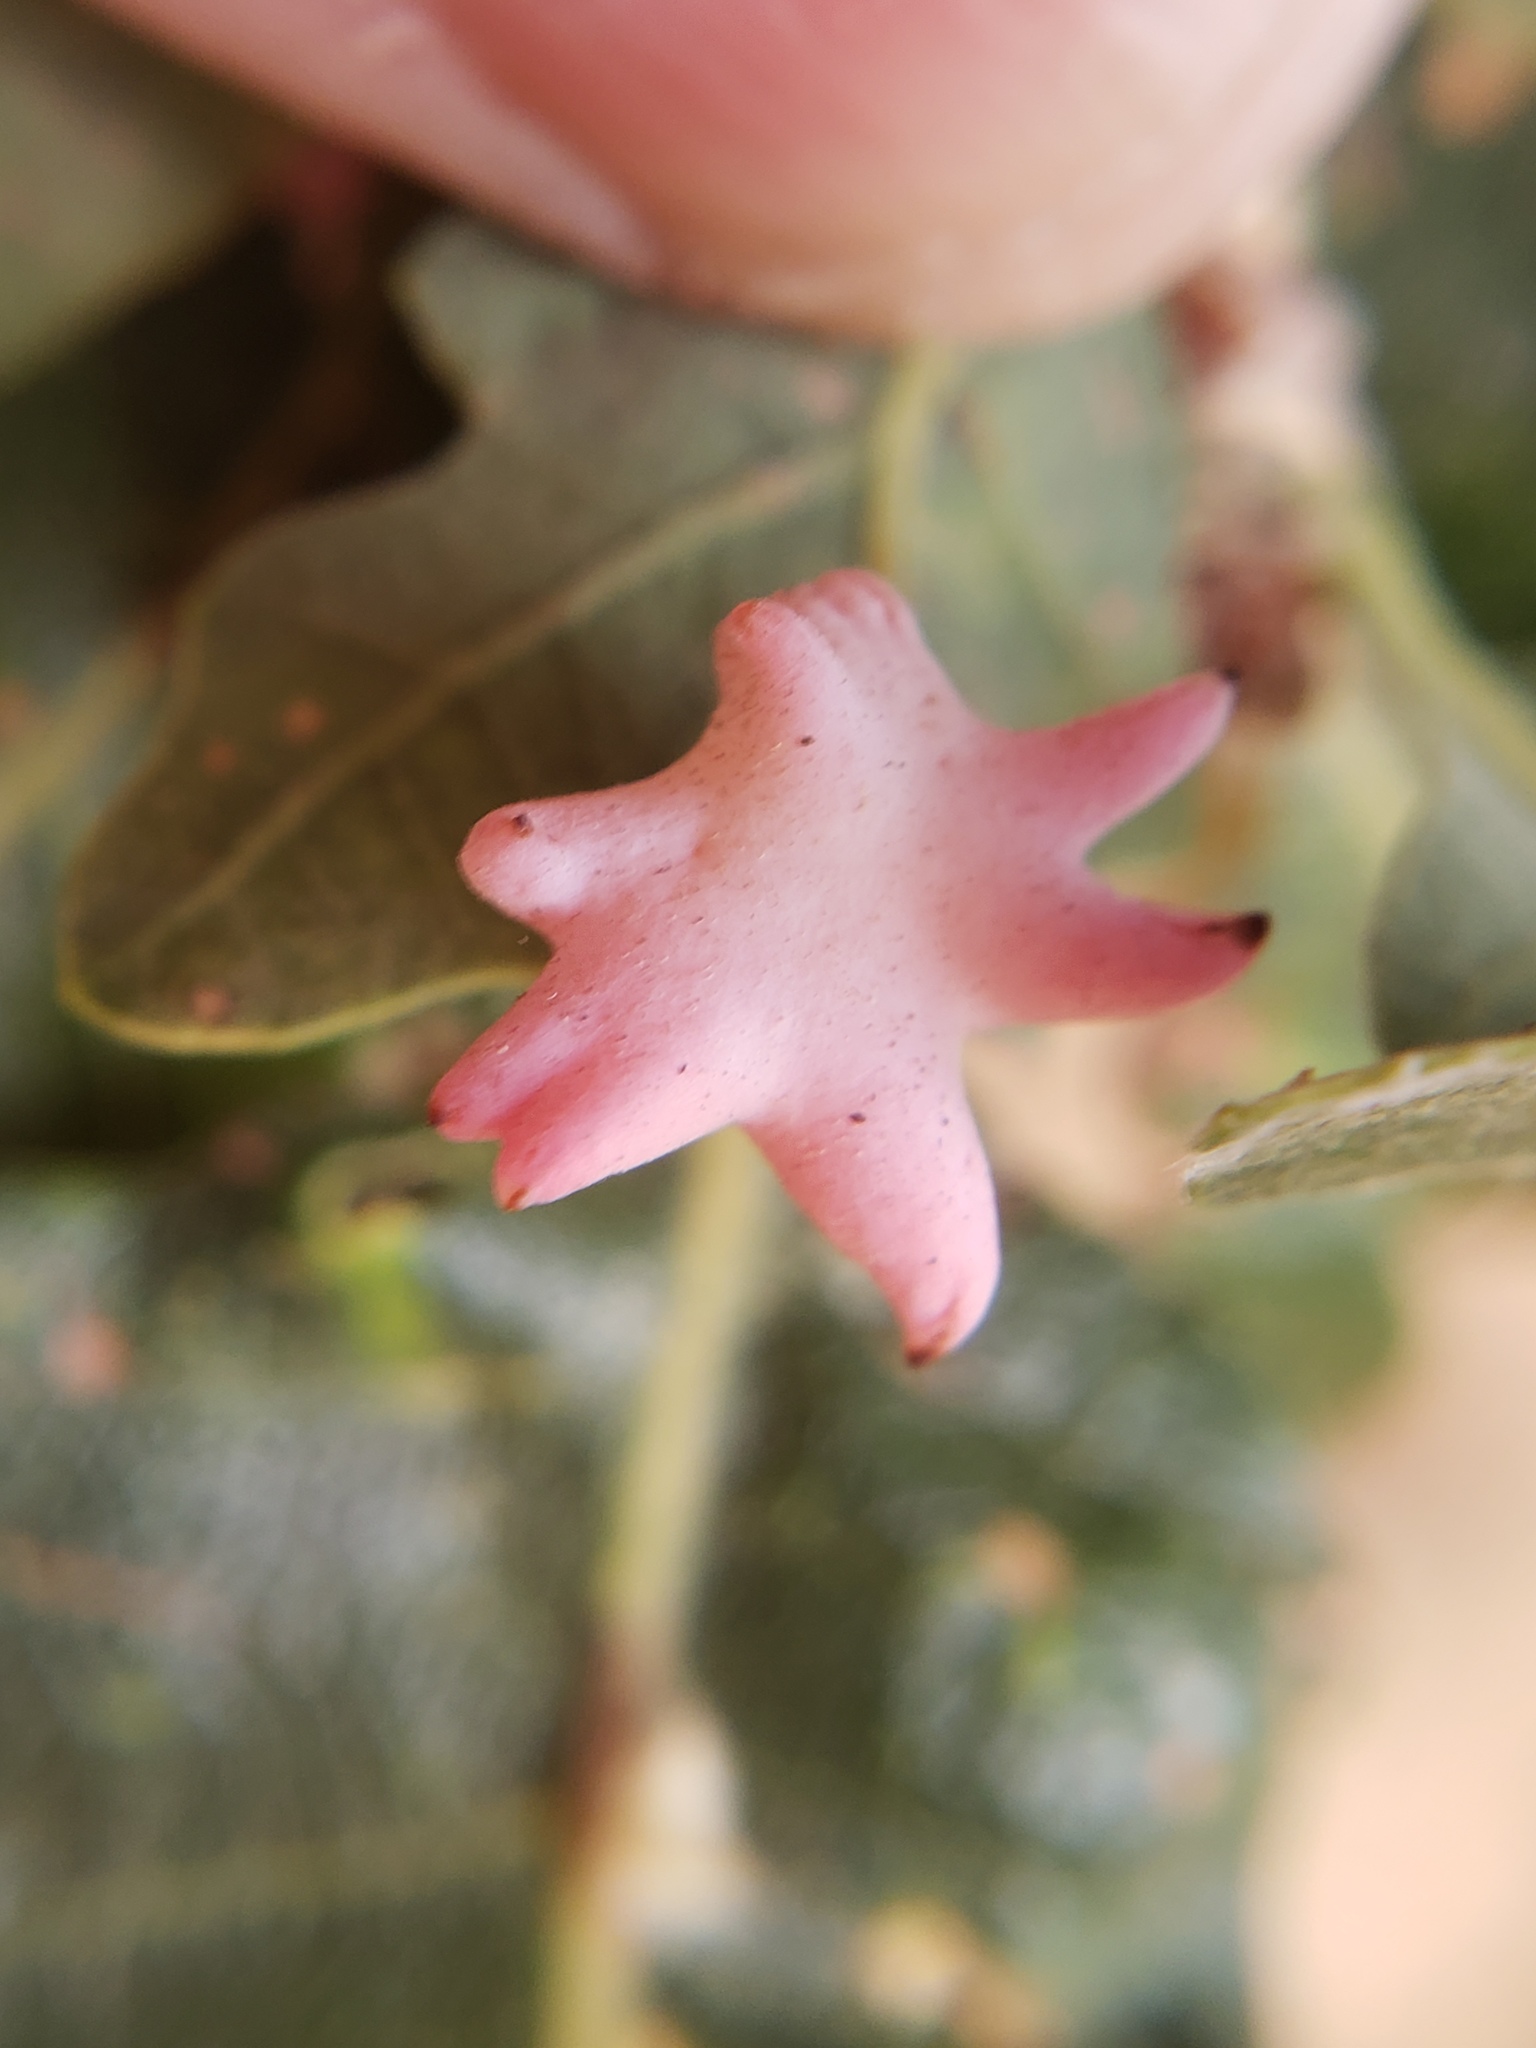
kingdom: Animalia
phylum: Arthropoda
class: Insecta
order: Hymenoptera
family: Cynipidae
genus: Cynips
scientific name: Cynips douglasi
